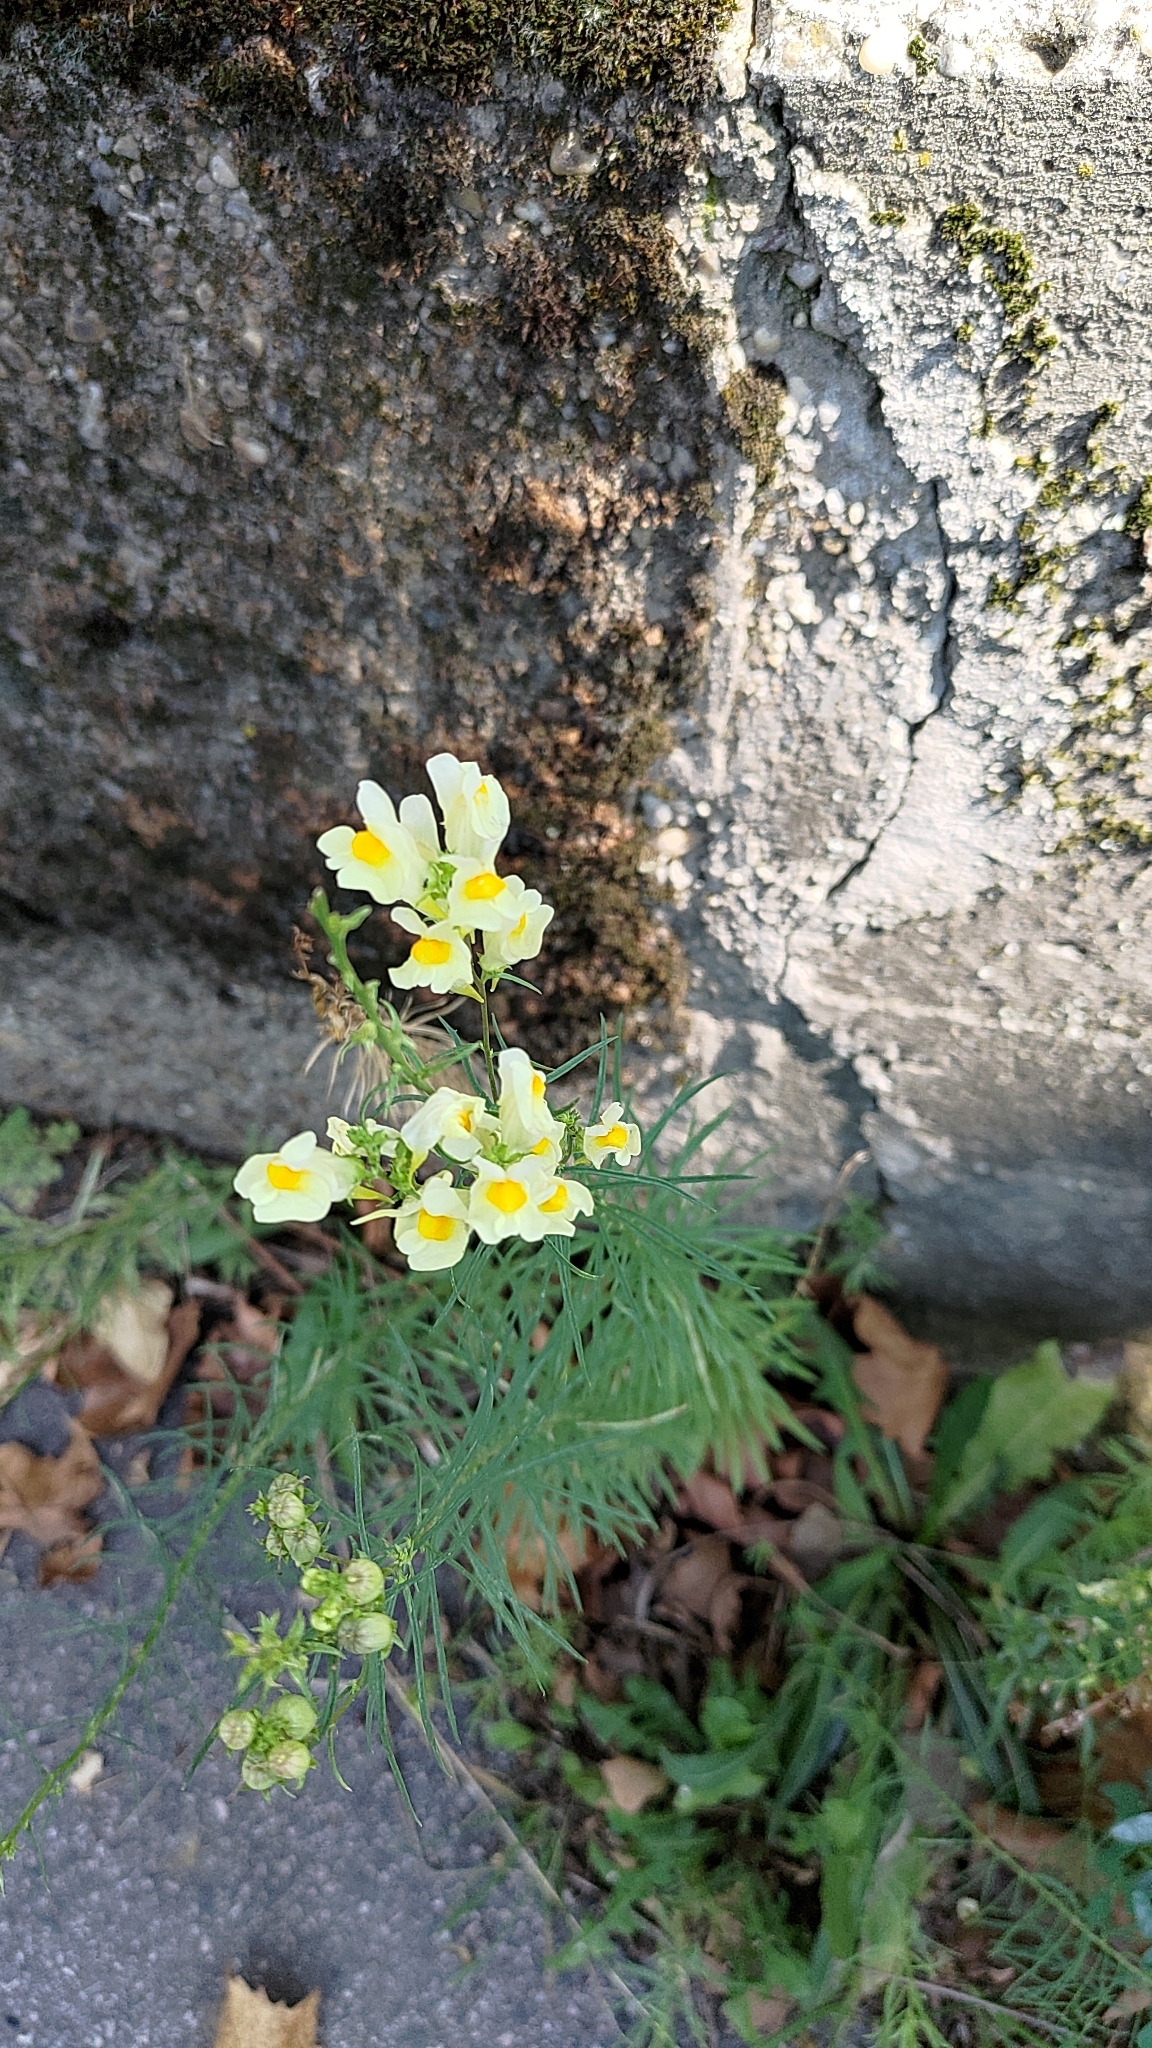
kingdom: Plantae
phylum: Tracheophyta
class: Magnoliopsida
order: Lamiales
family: Plantaginaceae
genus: Linaria
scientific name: Linaria vulgaris
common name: Butter and eggs
